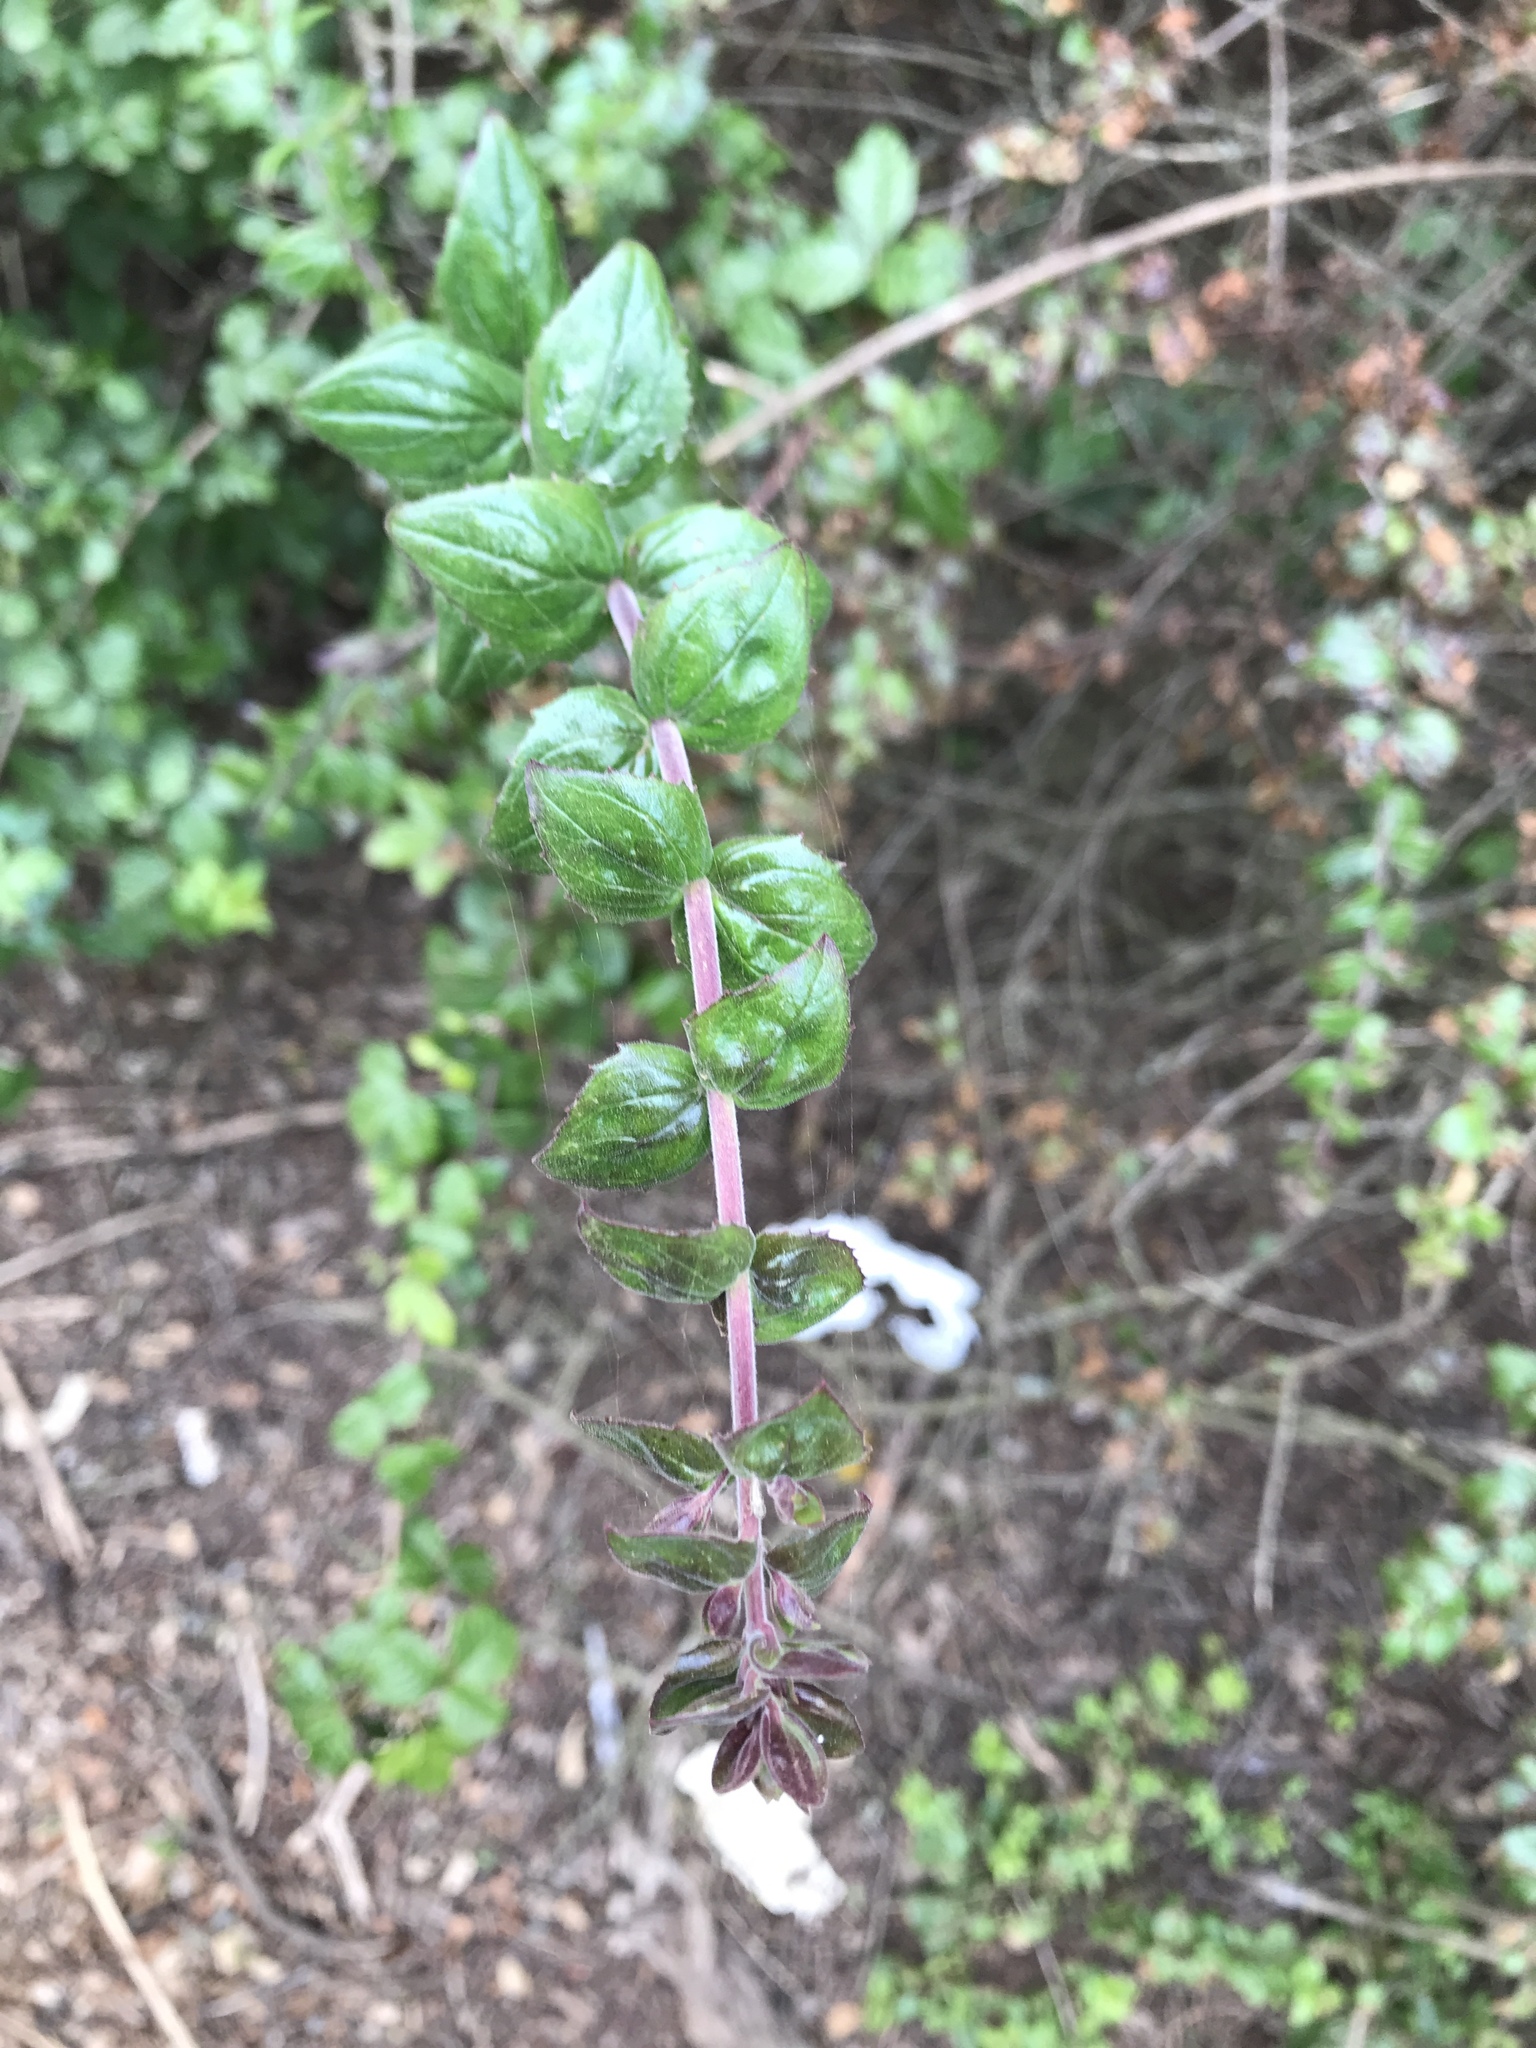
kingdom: Plantae
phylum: Tracheophyta
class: Magnoliopsida
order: Lamiales
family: Plantaginaceae
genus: Keckiella
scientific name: Keckiella cordifolia
